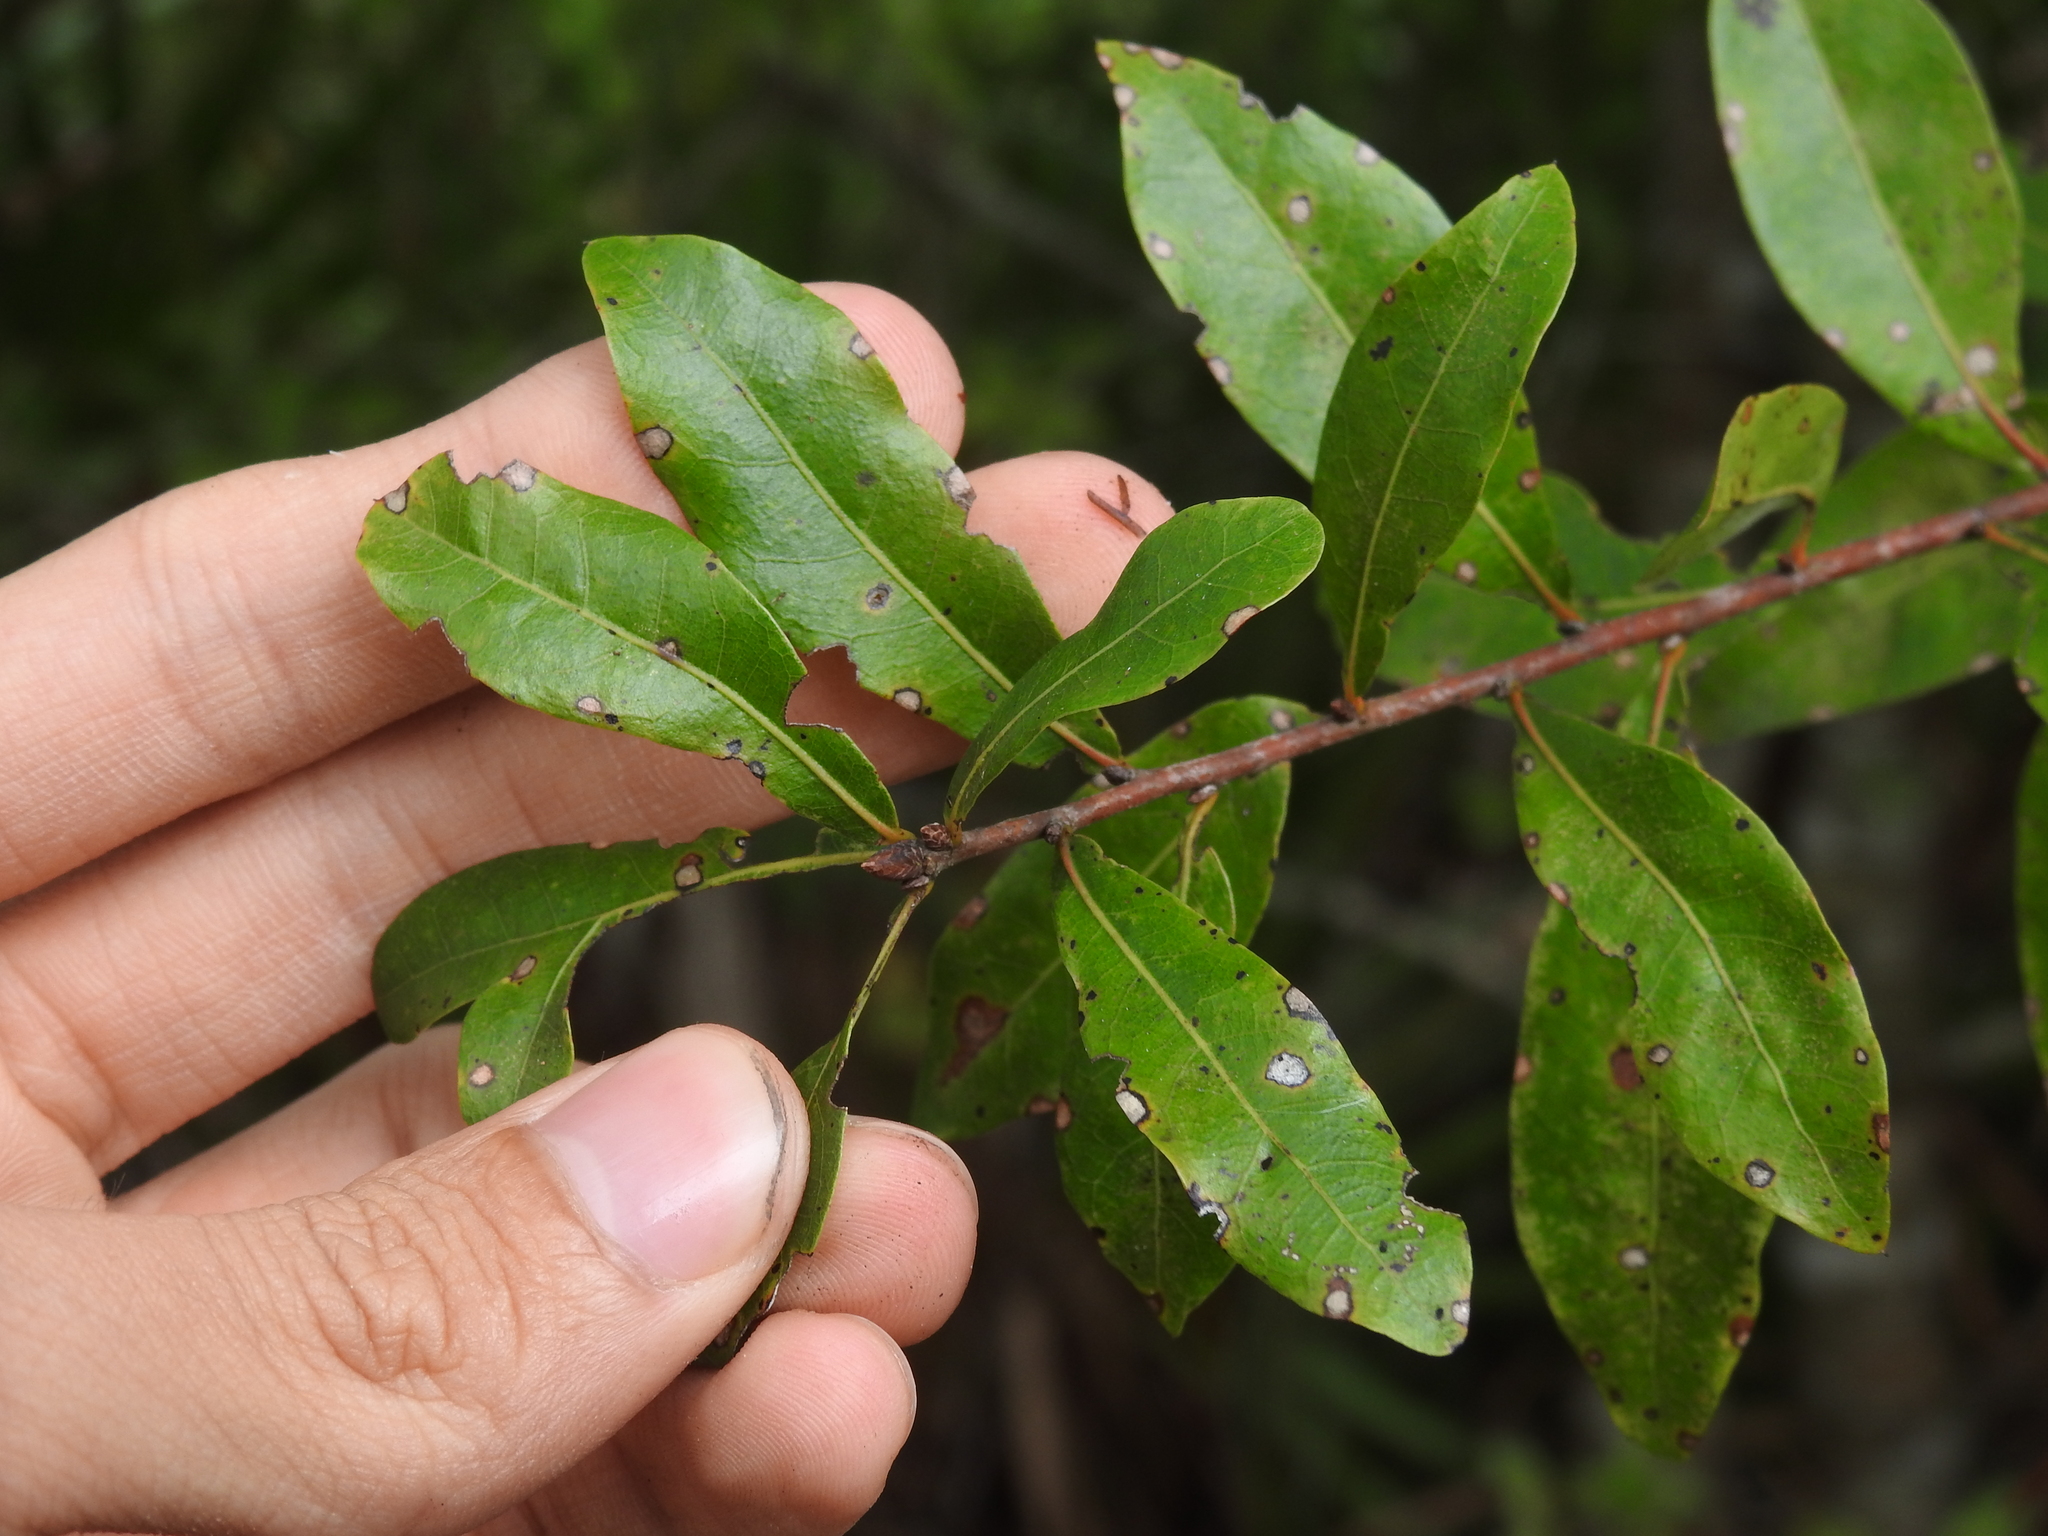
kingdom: Plantae
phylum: Tracheophyta
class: Magnoliopsida
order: Fagales
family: Fagaceae
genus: Quercus
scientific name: Quercus hemisphaerica
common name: Darlington oak
